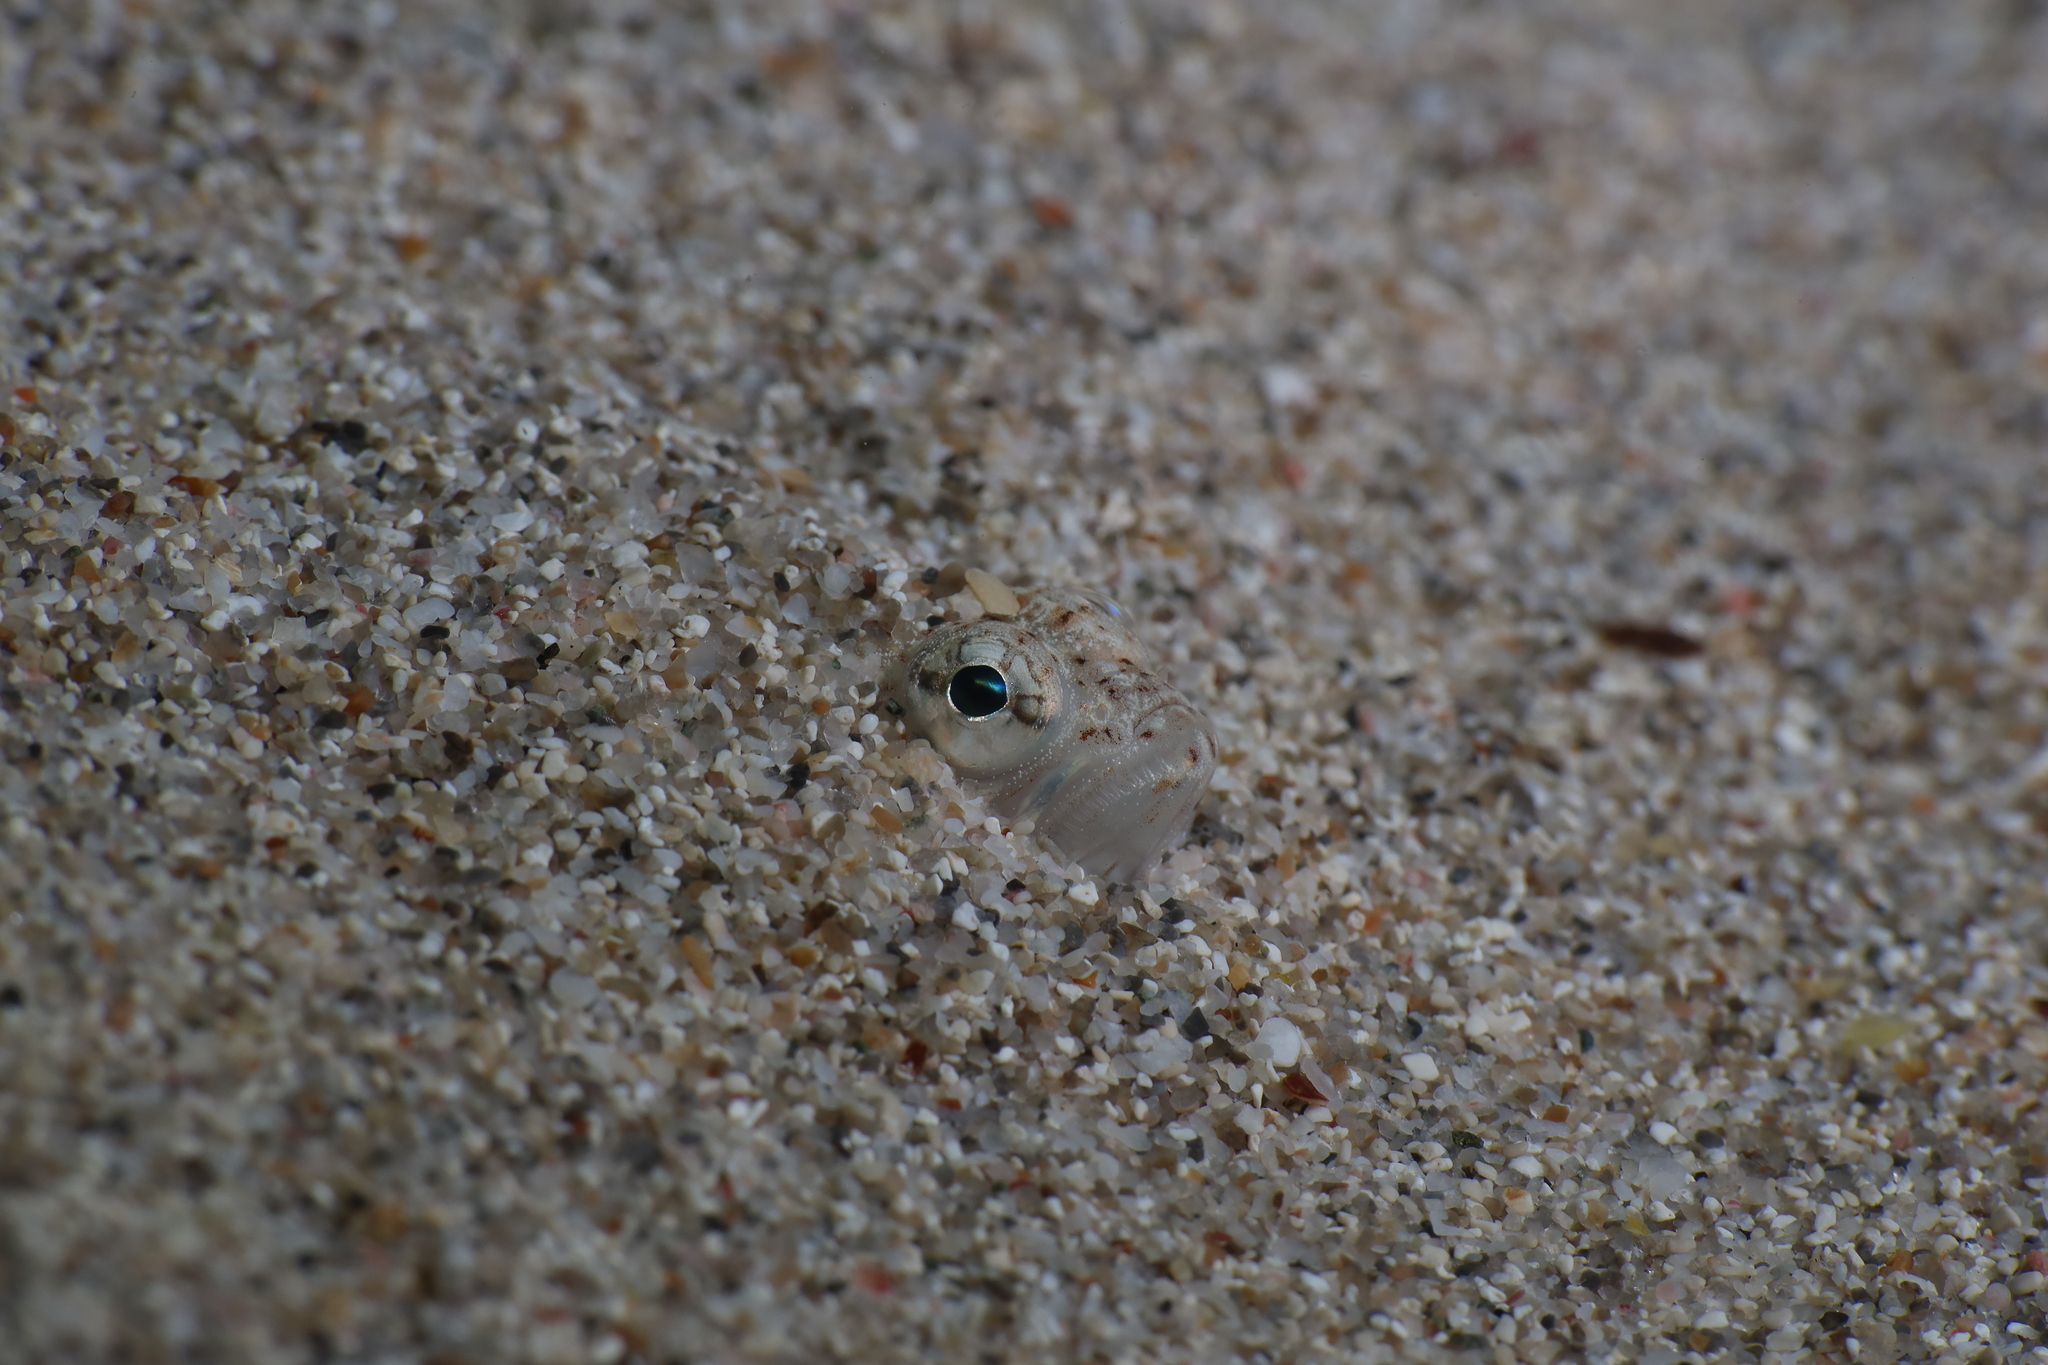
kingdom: Animalia
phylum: Chordata
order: Perciformes
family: Trachinidae
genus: Echiichthys
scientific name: Echiichthys vipera
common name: Lesser weever
